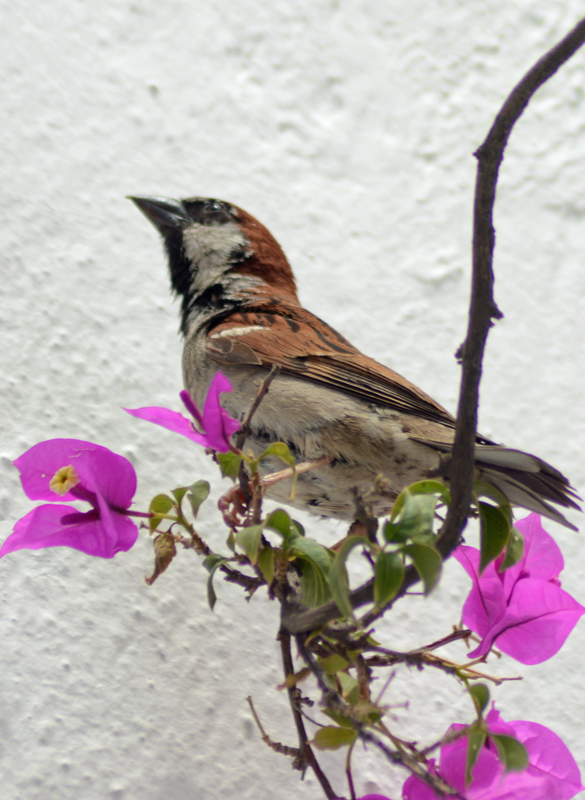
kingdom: Animalia
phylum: Chordata
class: Aves
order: Passeriformes
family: Passeridae
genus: Passer
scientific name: Passer domesticus
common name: House sparrow
